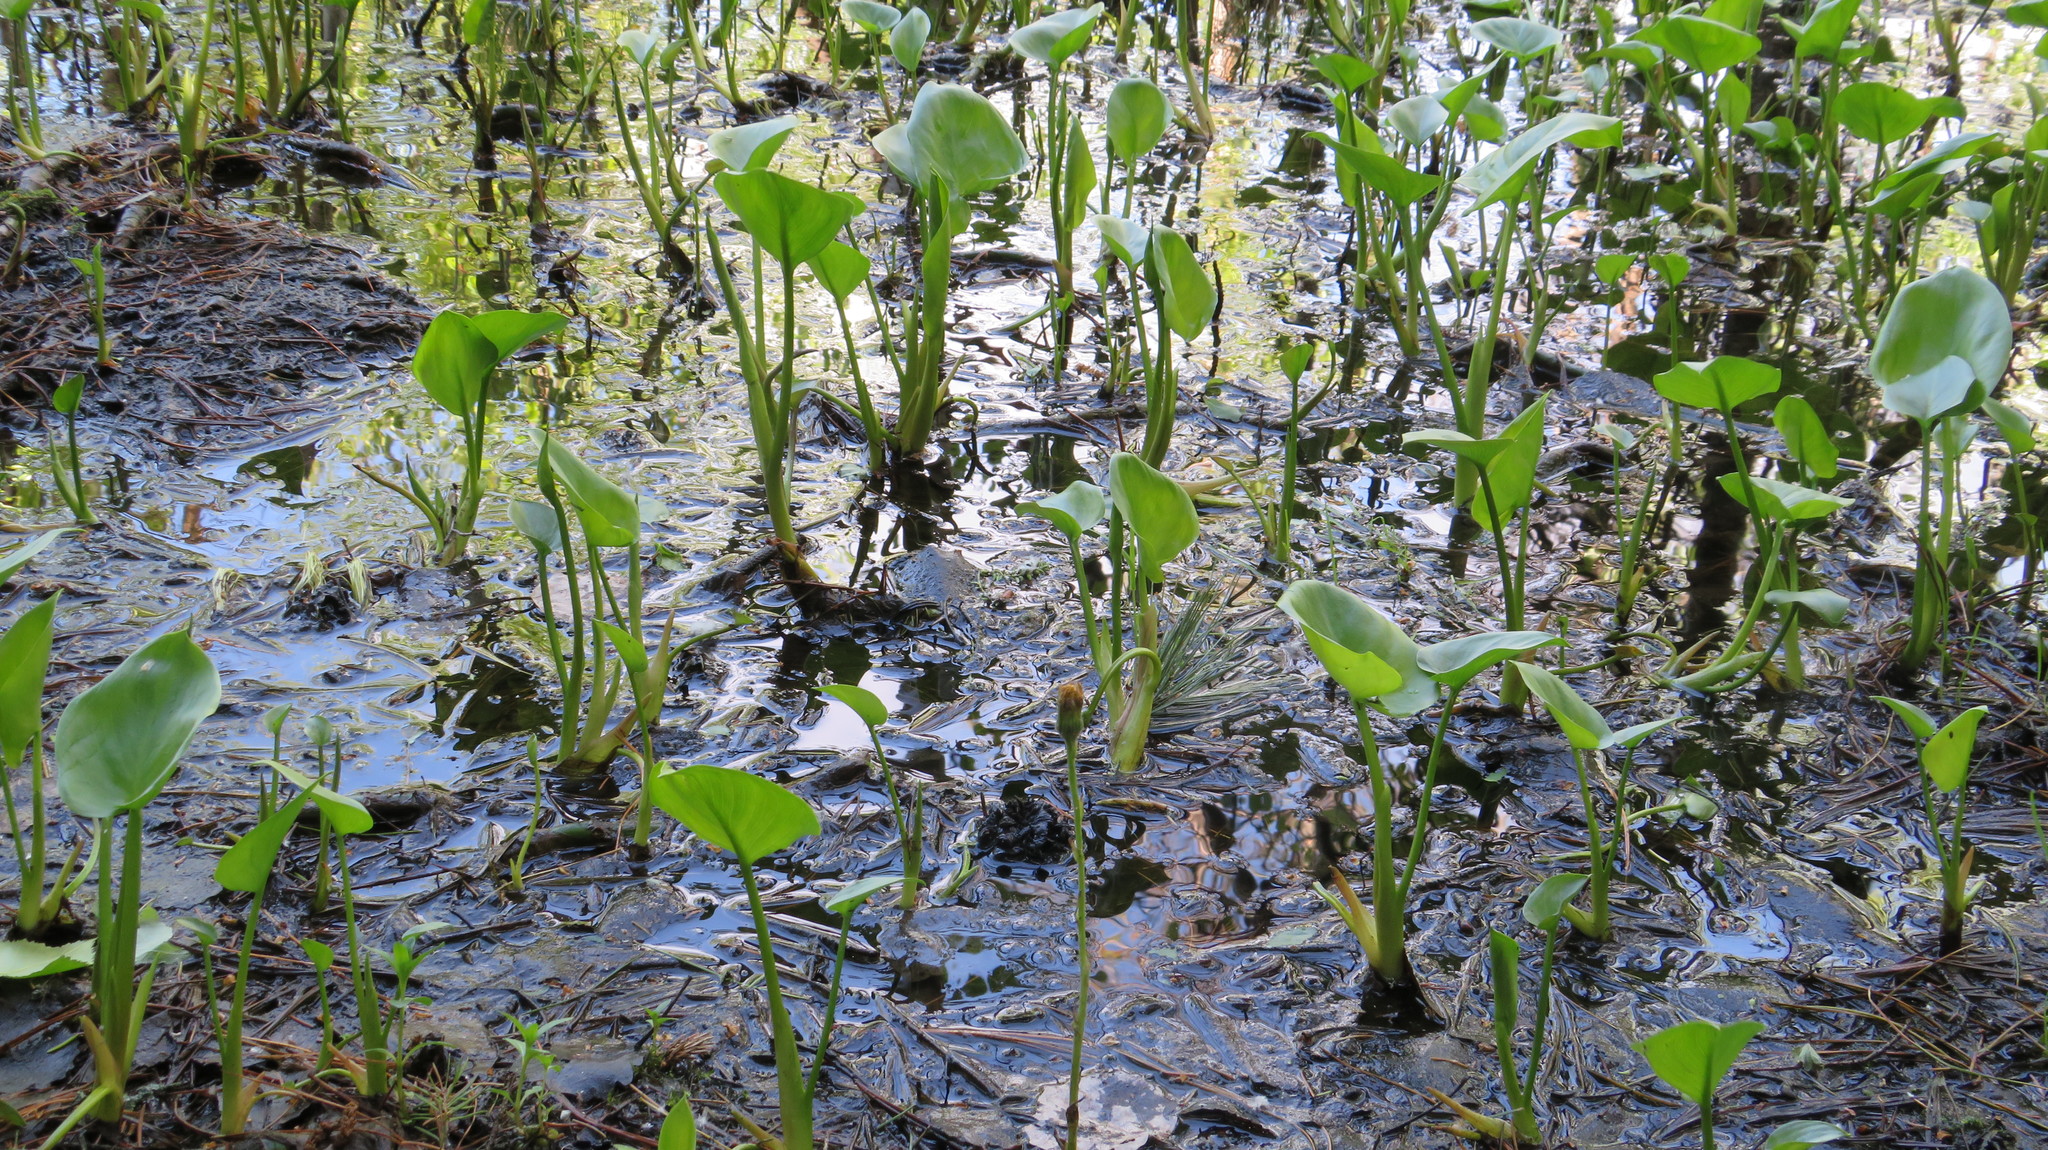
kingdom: Plantae
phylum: Tracheophyta
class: Liliopsida
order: Alismatales
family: Araceae
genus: Calla
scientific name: Calla palustris
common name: Bog arum
